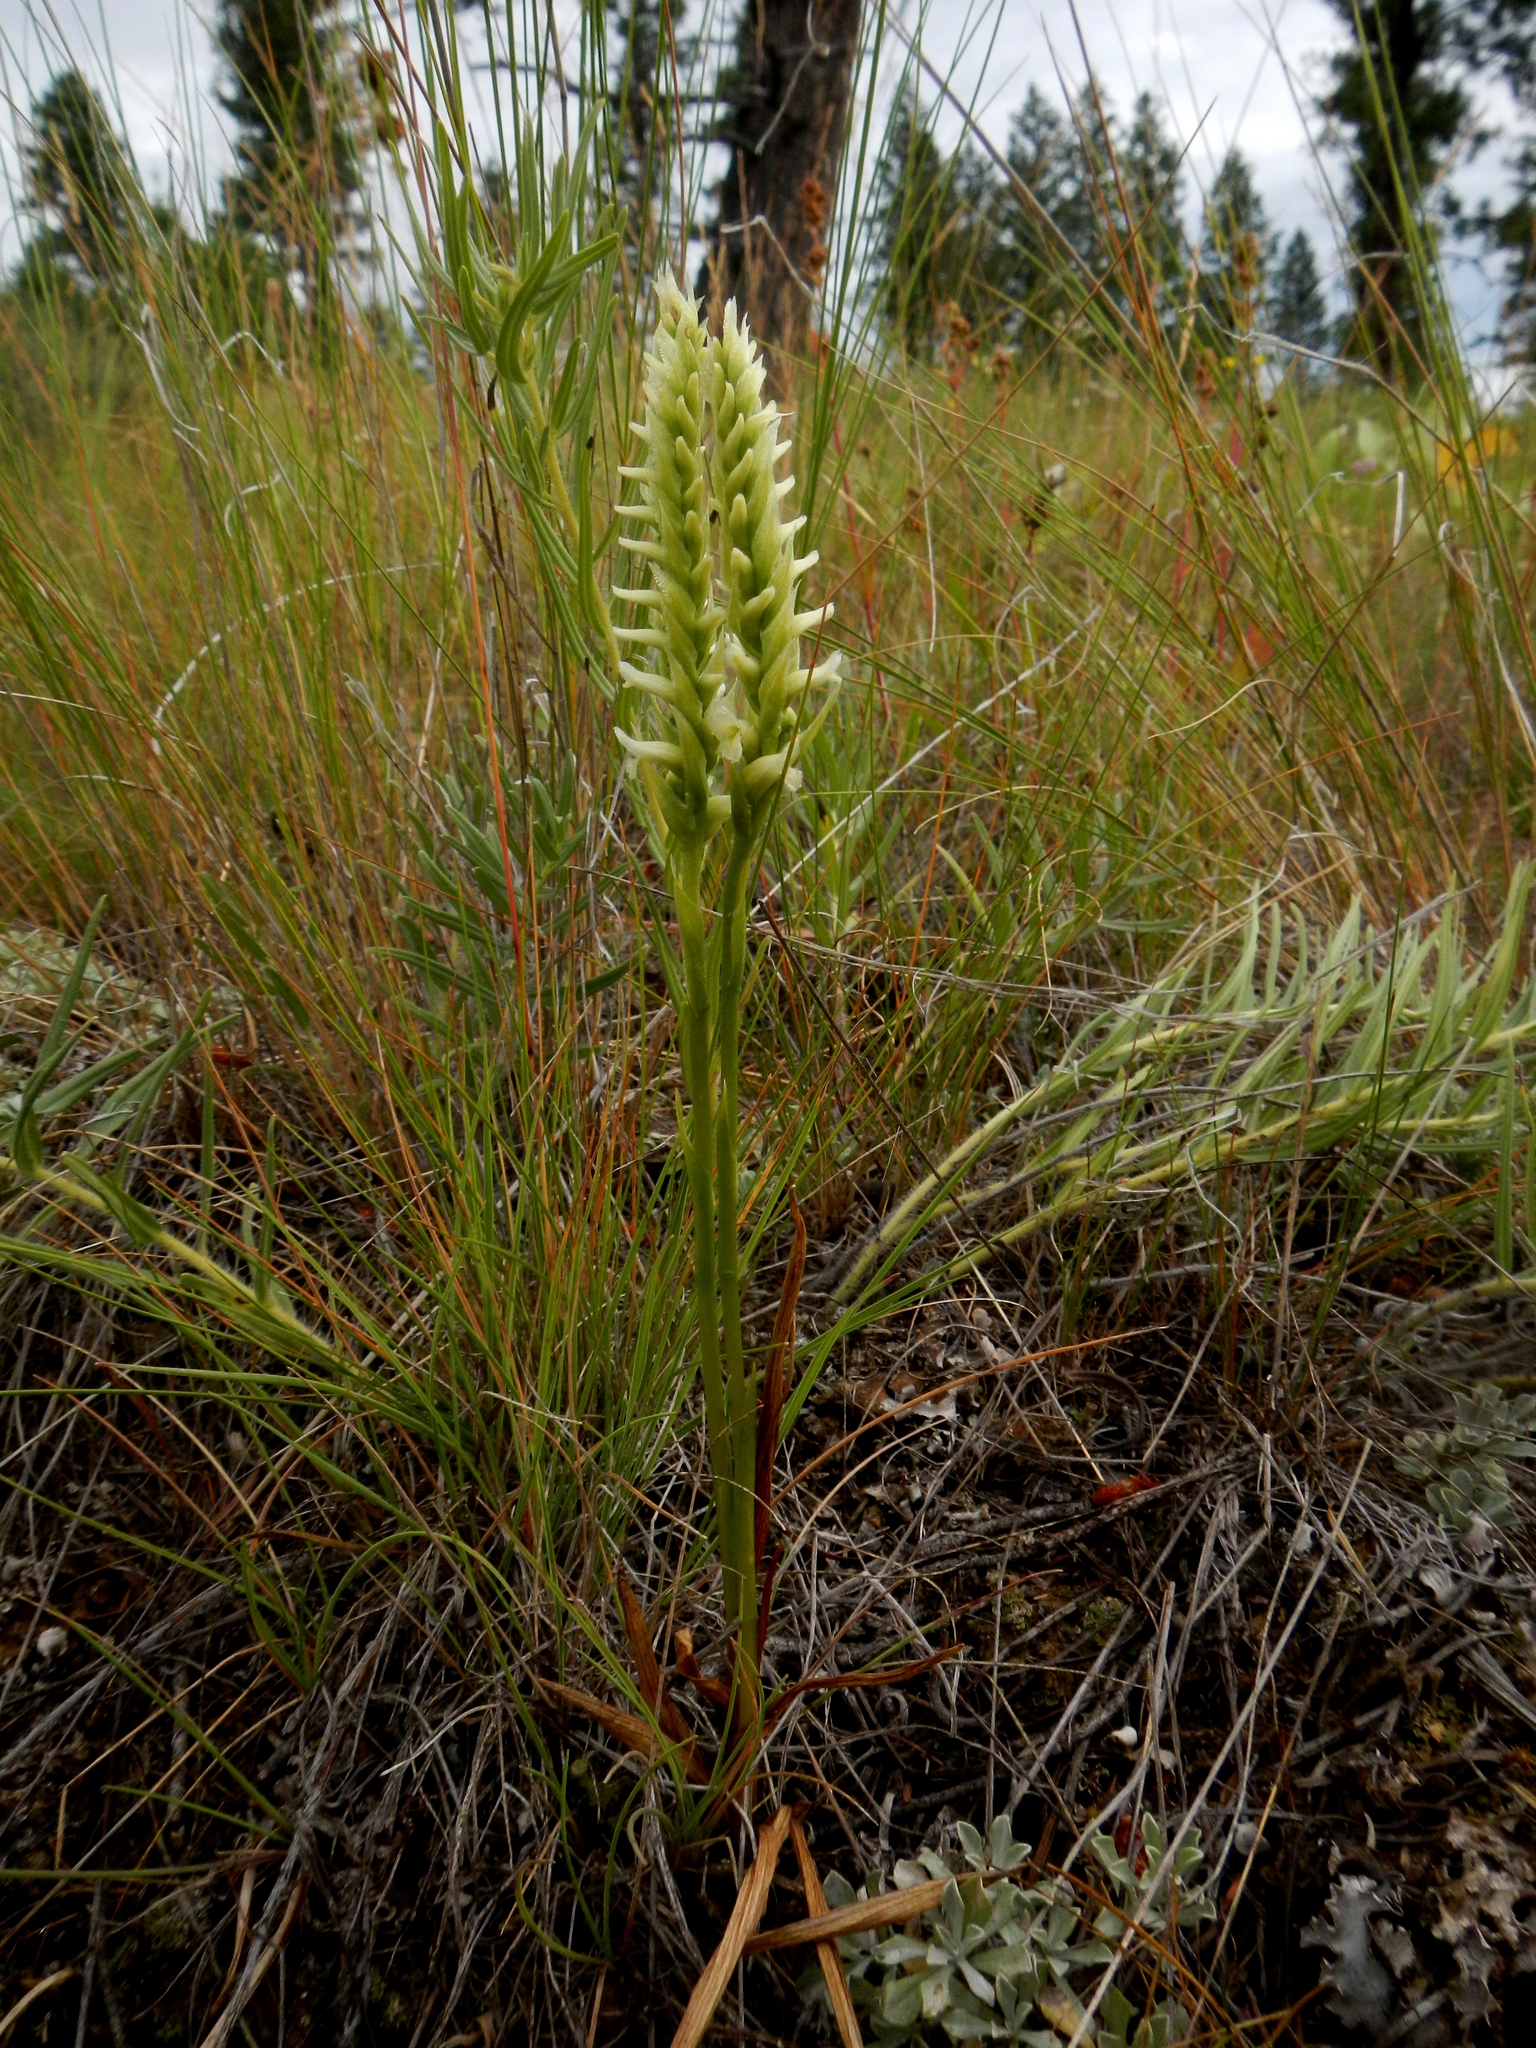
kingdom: Plantae
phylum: Tracheophyta
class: Liliopsida
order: Asparagales
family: Orchidaceae
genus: Spiranthes
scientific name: Spiranthes romanzoffiana
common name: Irish lady's-tresses
